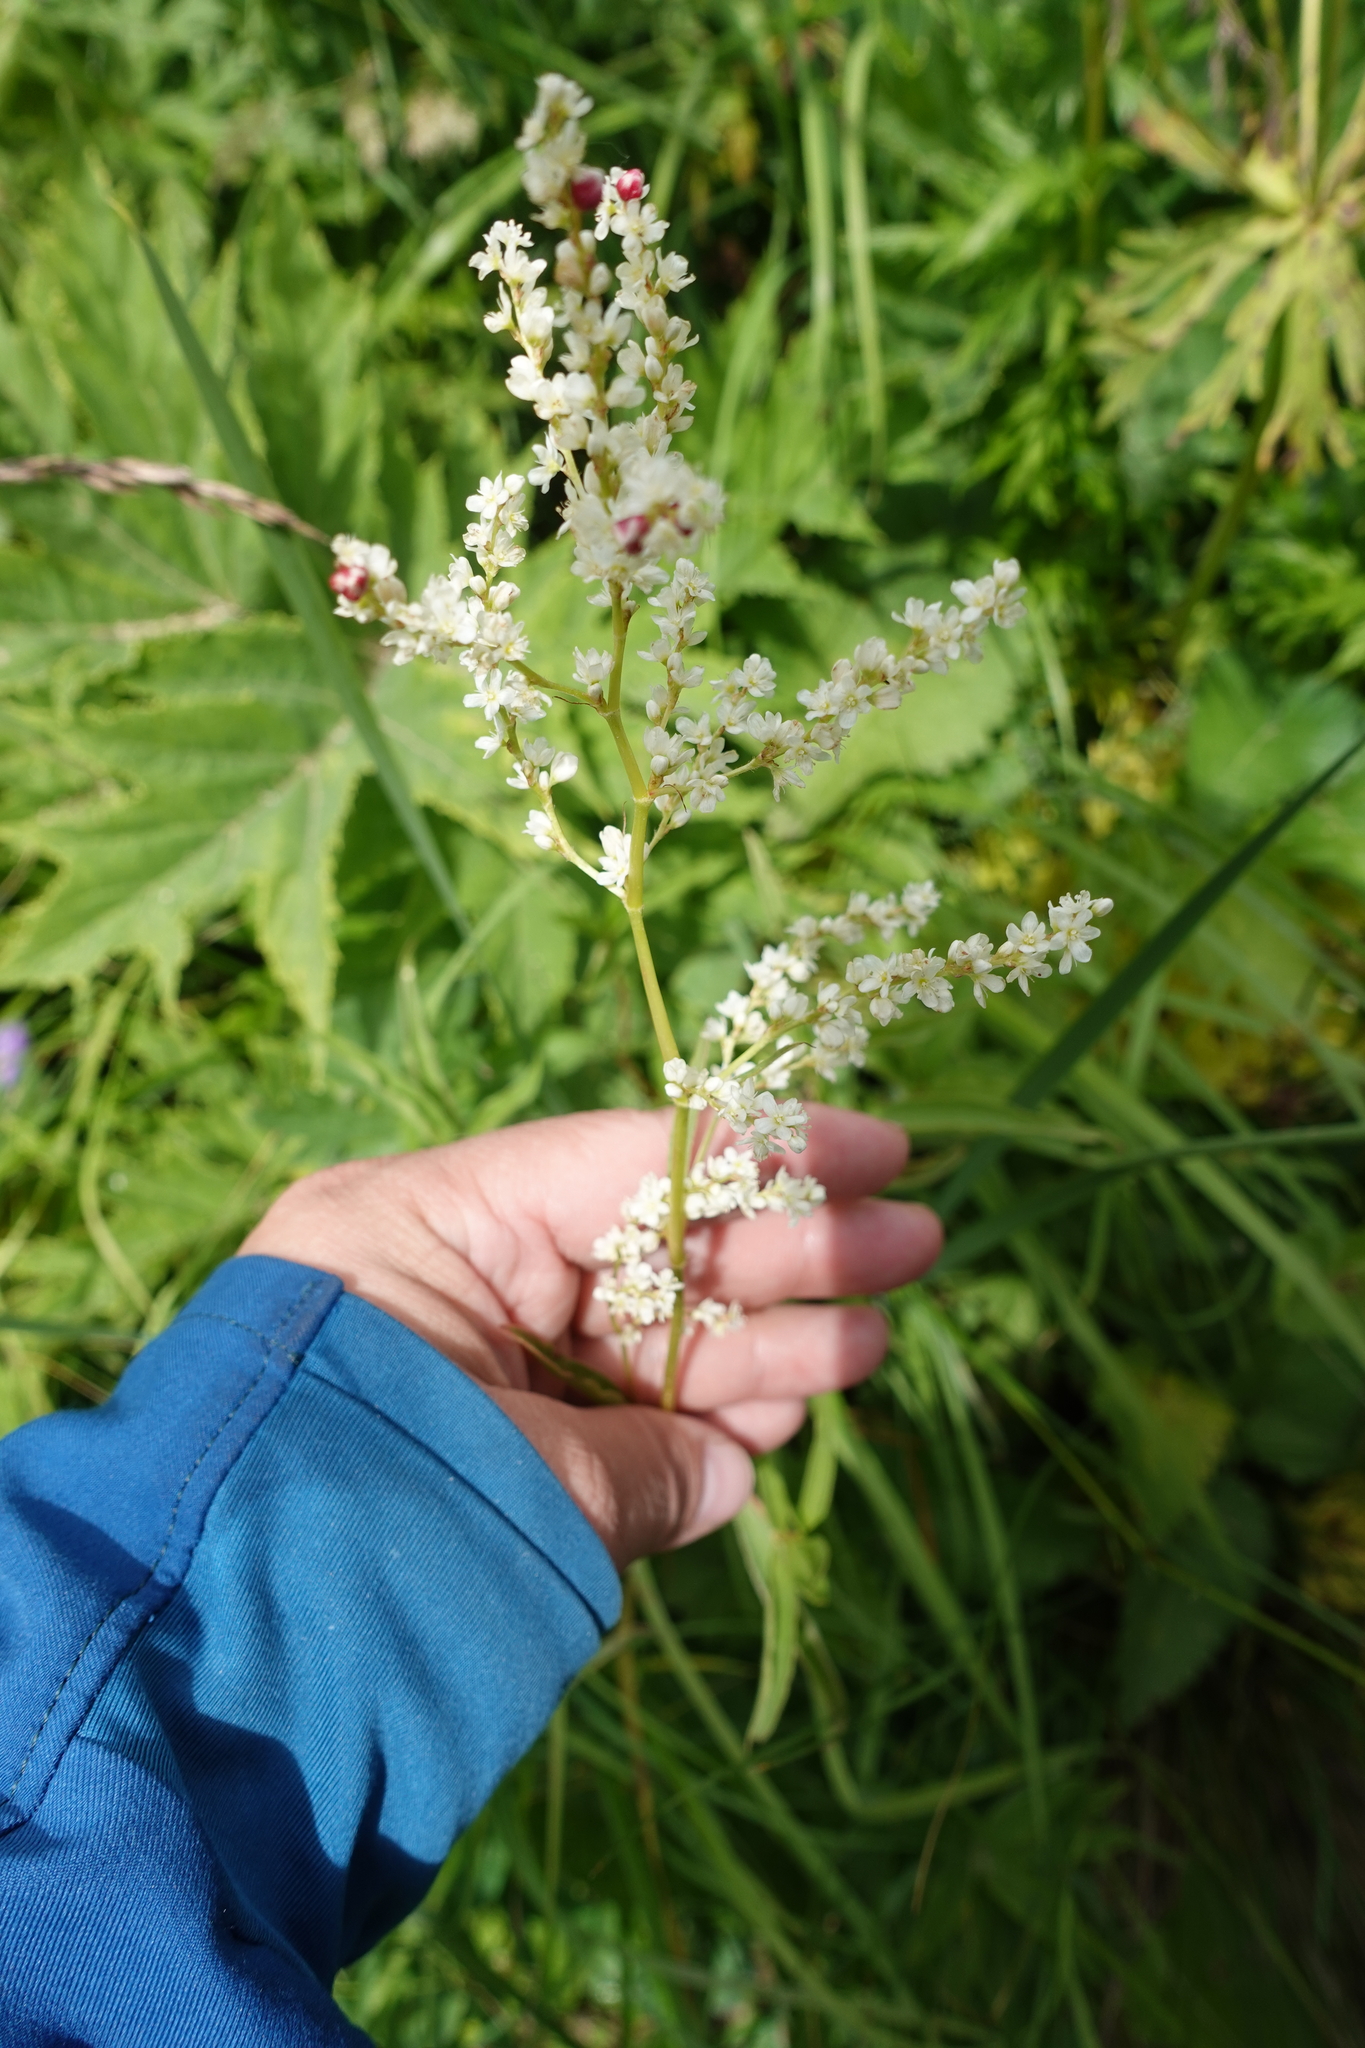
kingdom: Plantae
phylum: Tracheophyta
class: Magnoliopsida
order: Caryophyllales
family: Polygonaceae
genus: Koenigia
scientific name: Koenigia alpina
